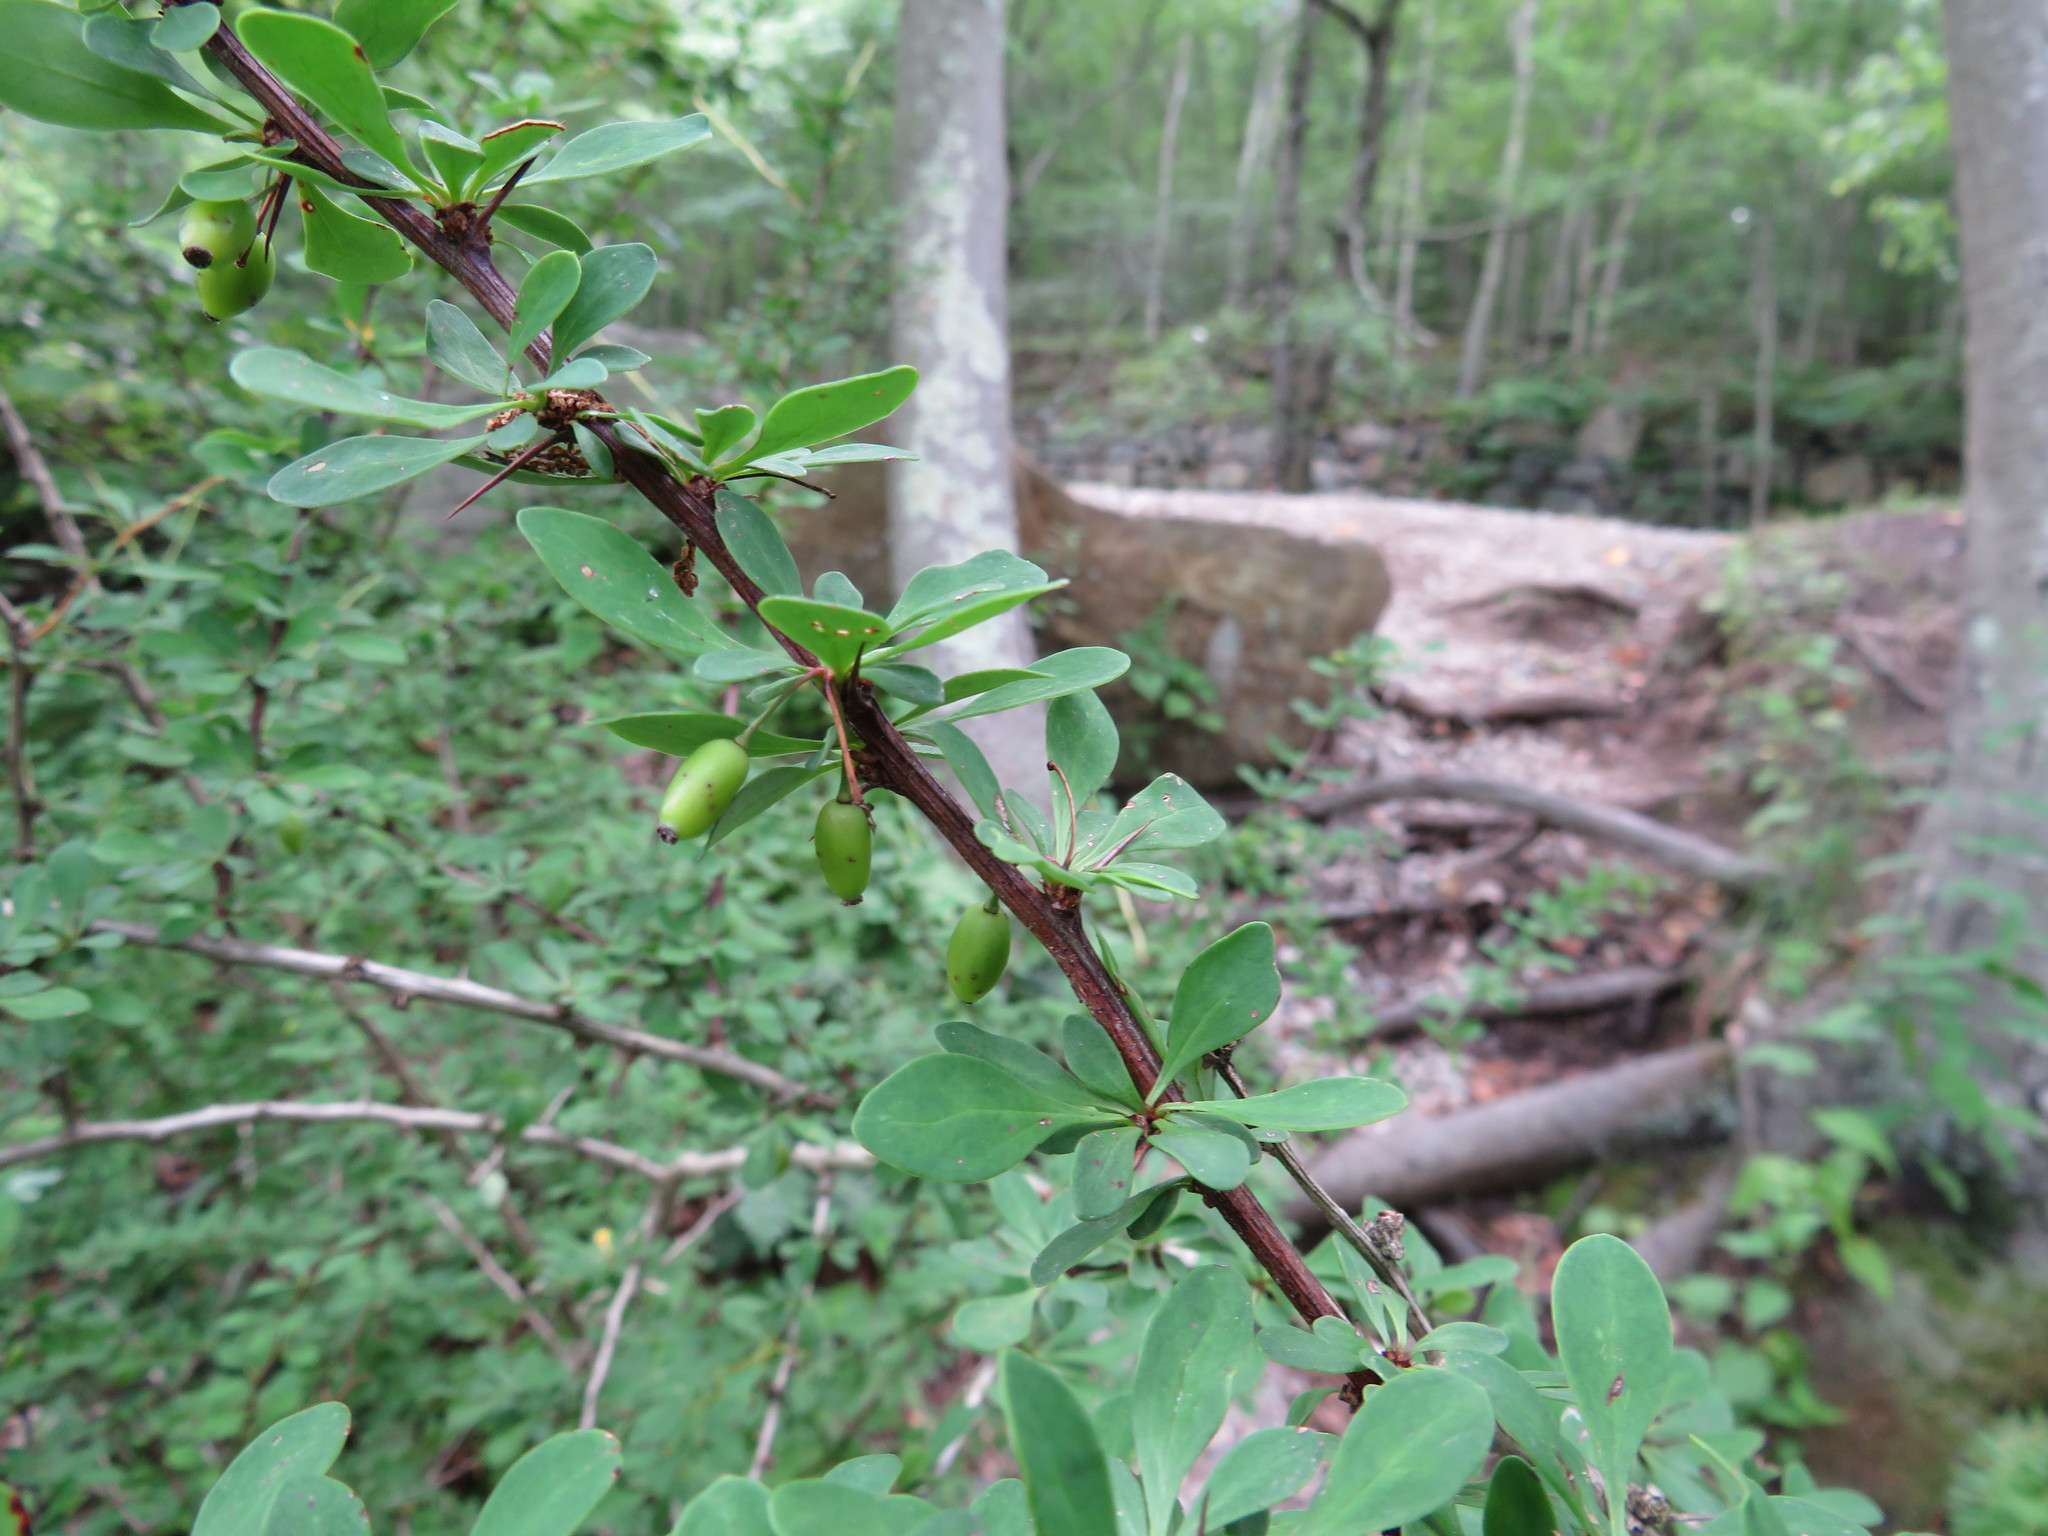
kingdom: Plantae
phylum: Tracheophyta
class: Magnoliopsida
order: Ranunculales
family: Berberidaceae
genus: Berberis
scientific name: Berberis thunbergii
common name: Japanese barberry
